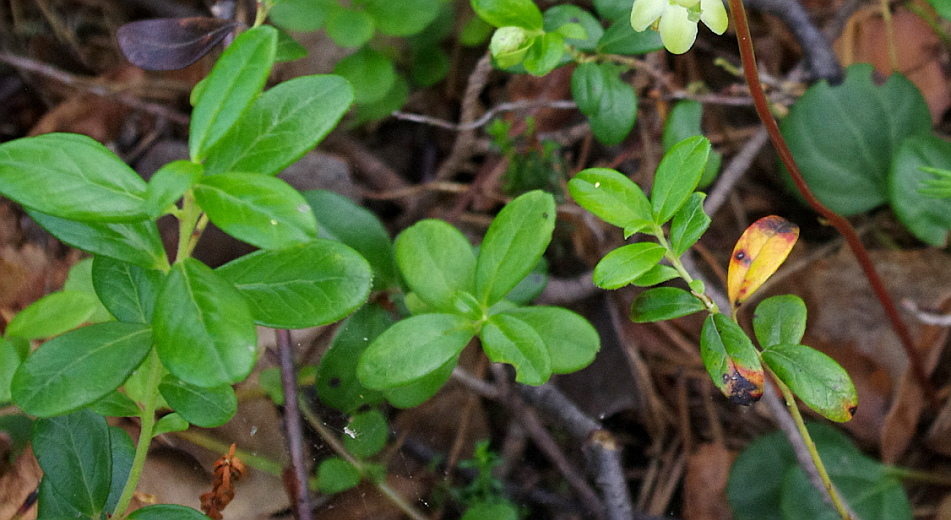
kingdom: Plantae
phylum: Tracheophyta
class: Magnoliopsida
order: Ericales
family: Ericaceae
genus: Vaccinium
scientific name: Vaccinium vitis-idaea
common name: Cowberry
